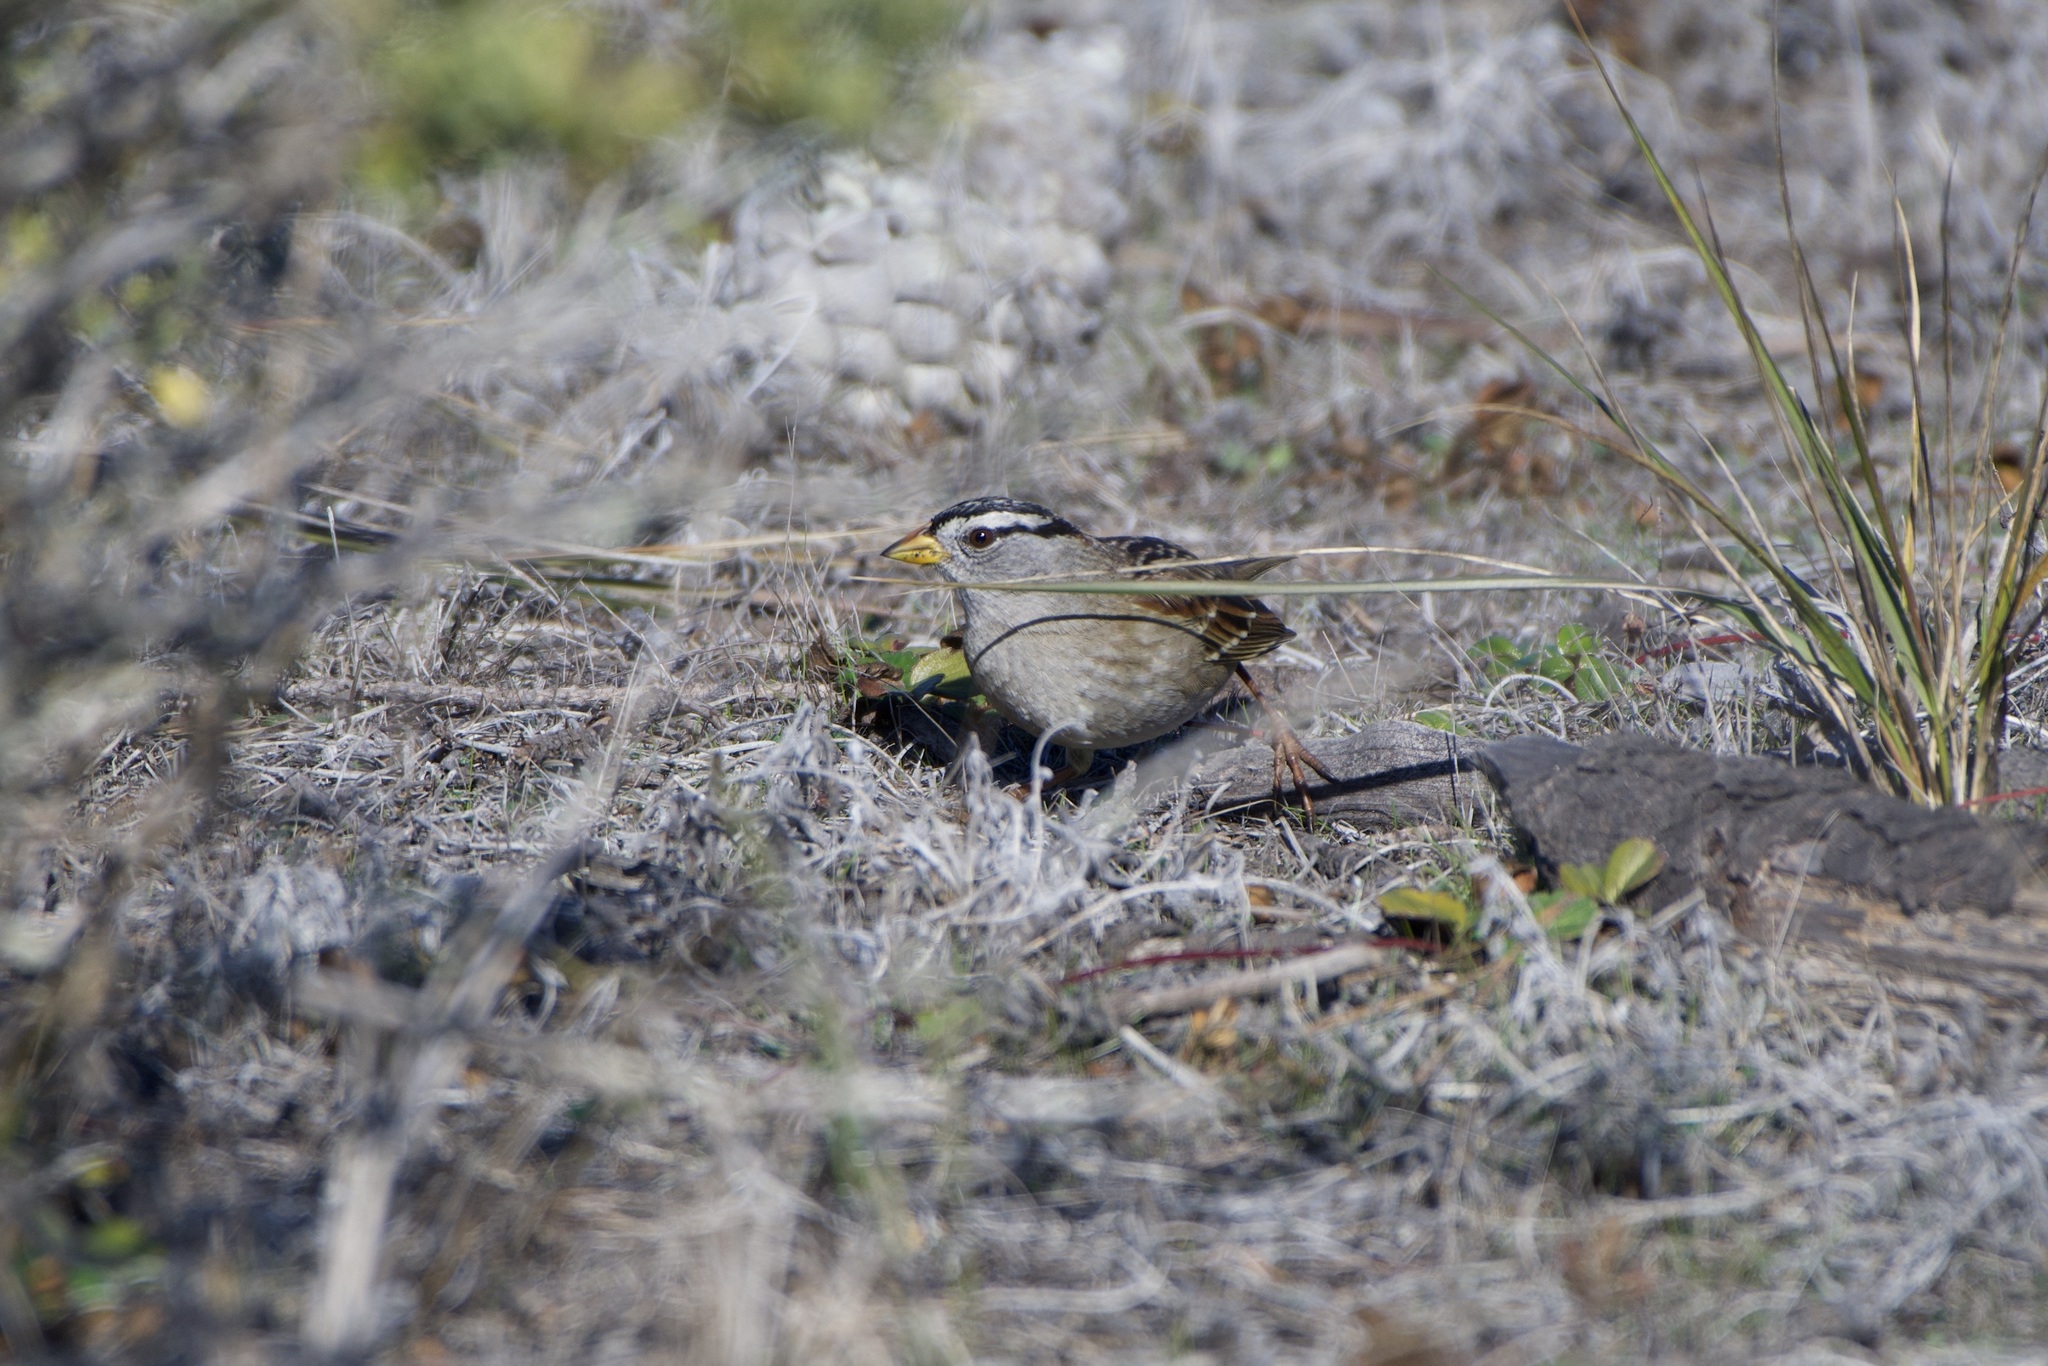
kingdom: Animalia
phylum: Chordata
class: Aves
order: Passeriformes
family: Passerellidae
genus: Zonotrichia
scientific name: Zonotrichia leucophrys
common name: White-crowned sparrow
